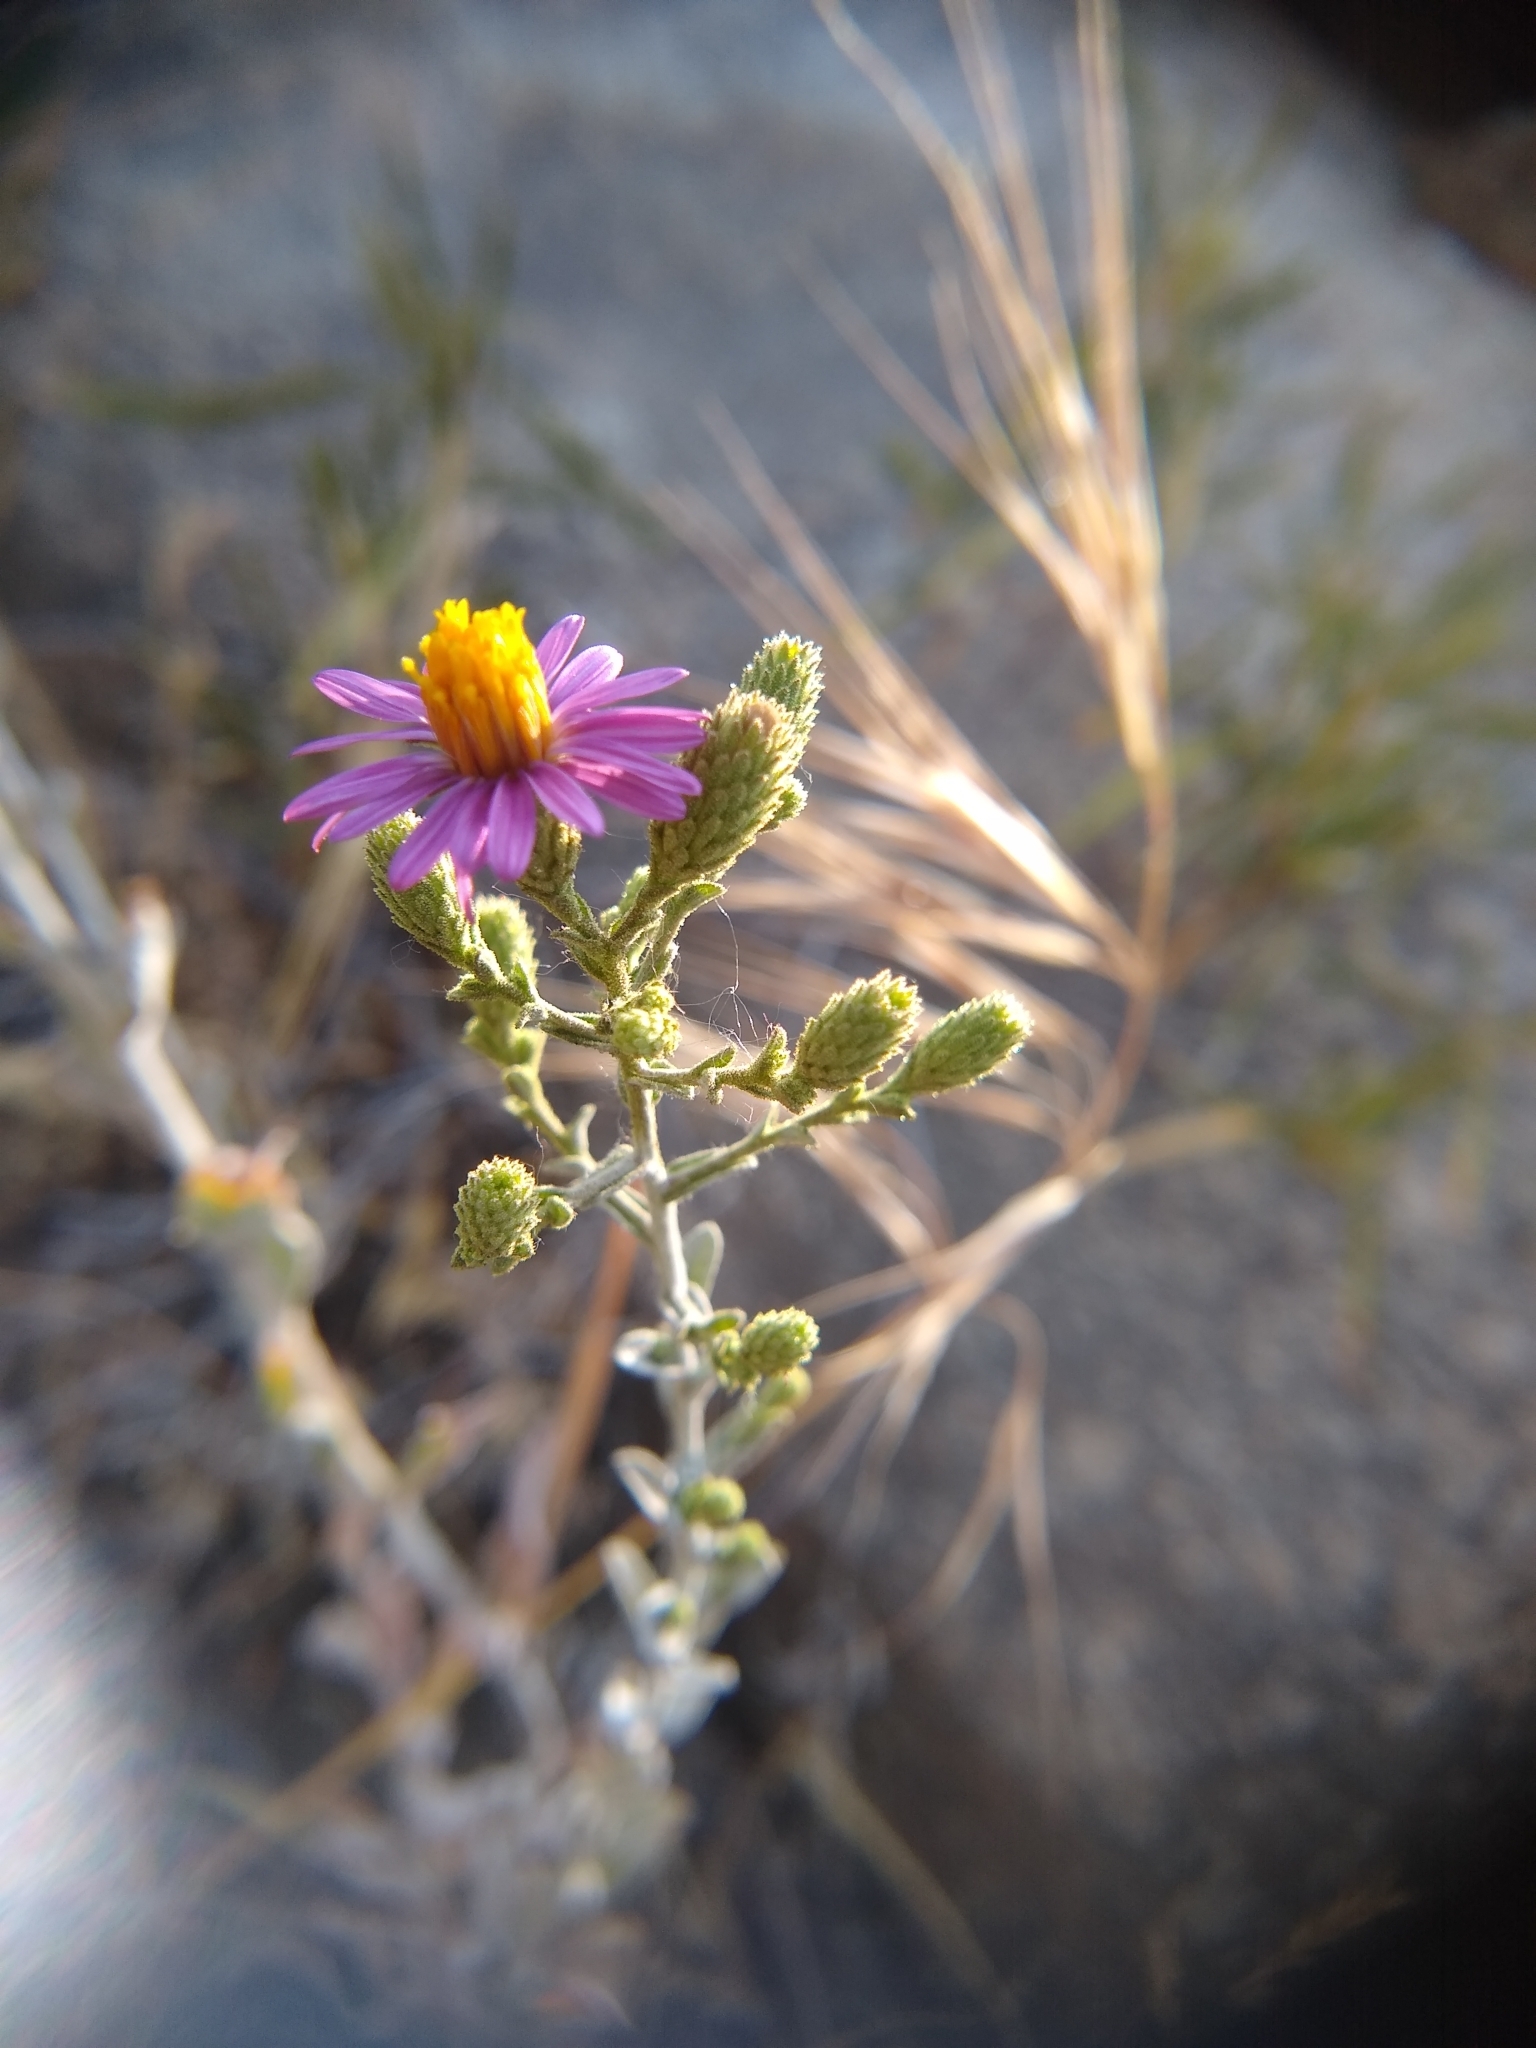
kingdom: Plantae
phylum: Tracheophyta
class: Magnoliopsida
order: Asterales
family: Asteraceae
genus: Corethrogyne
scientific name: Corethrogyne filaginifolia
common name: Sand-aster
